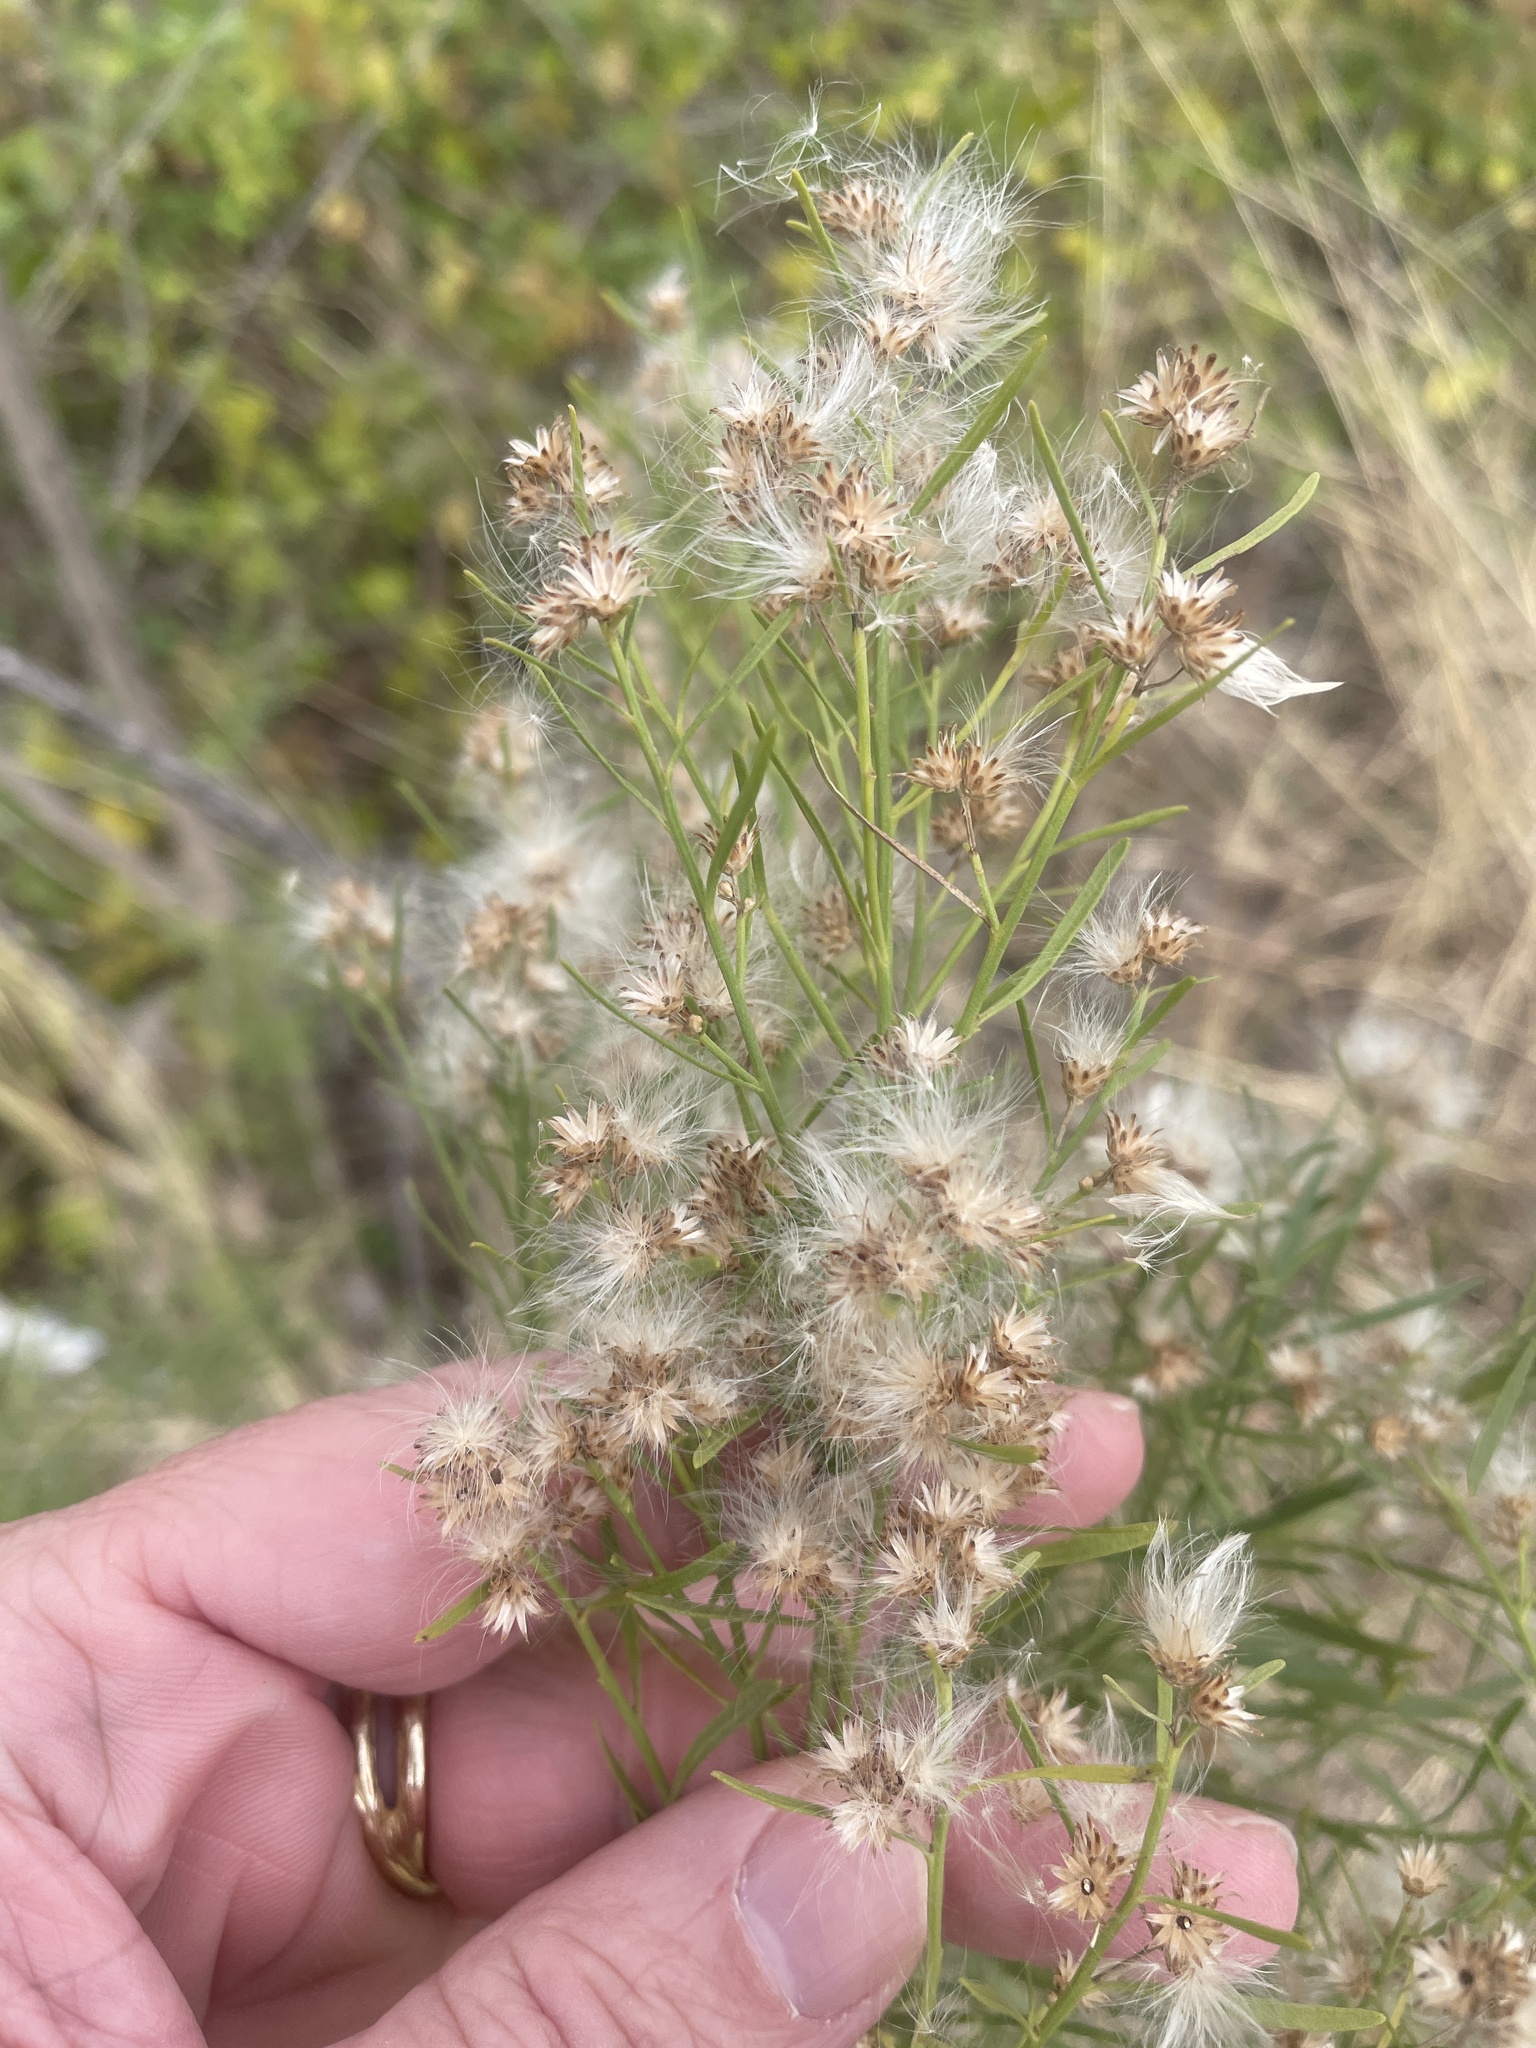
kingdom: Plantae
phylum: Tracheophyta
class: Magnoliopsida
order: Asterales
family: Asteraceae
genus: Baccharis
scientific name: Baccharis neglecta
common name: Roosevelt-weed
